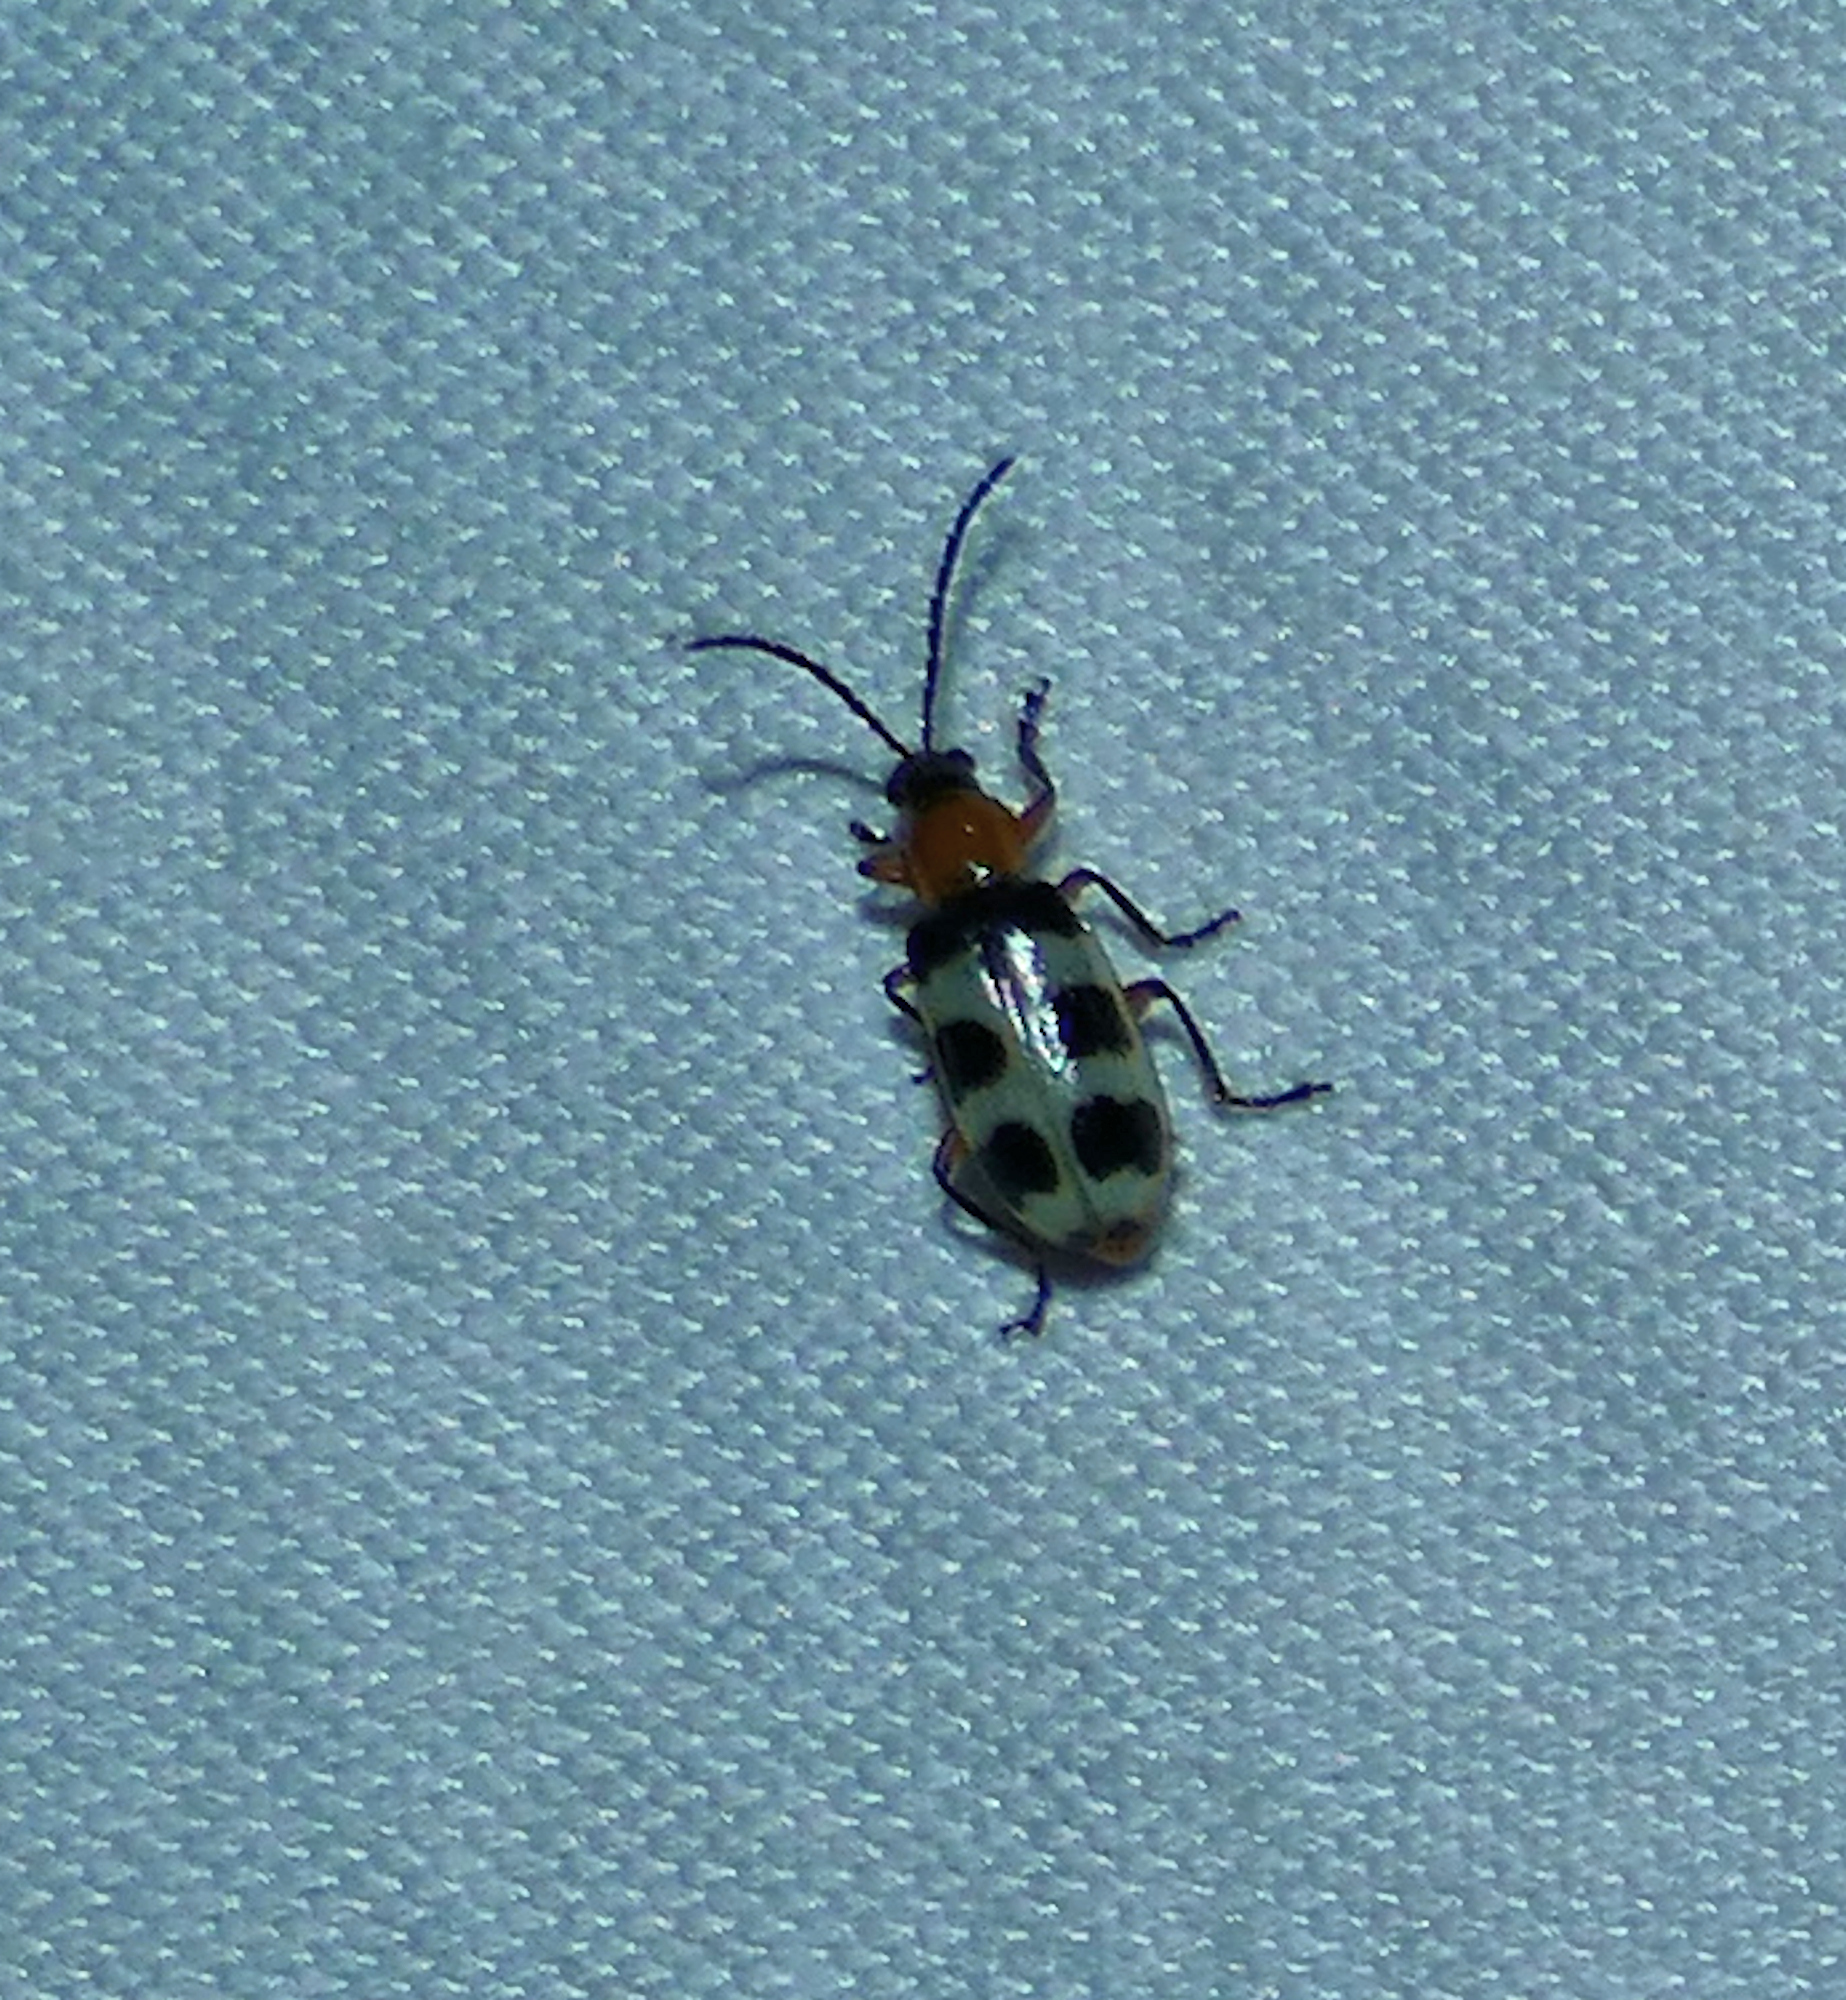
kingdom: Animalia
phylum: Arthropoda
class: Insecta
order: Coleoptera
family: Chrysomelidae
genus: Paranapiacaba
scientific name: Paranapiacaba tricincta
